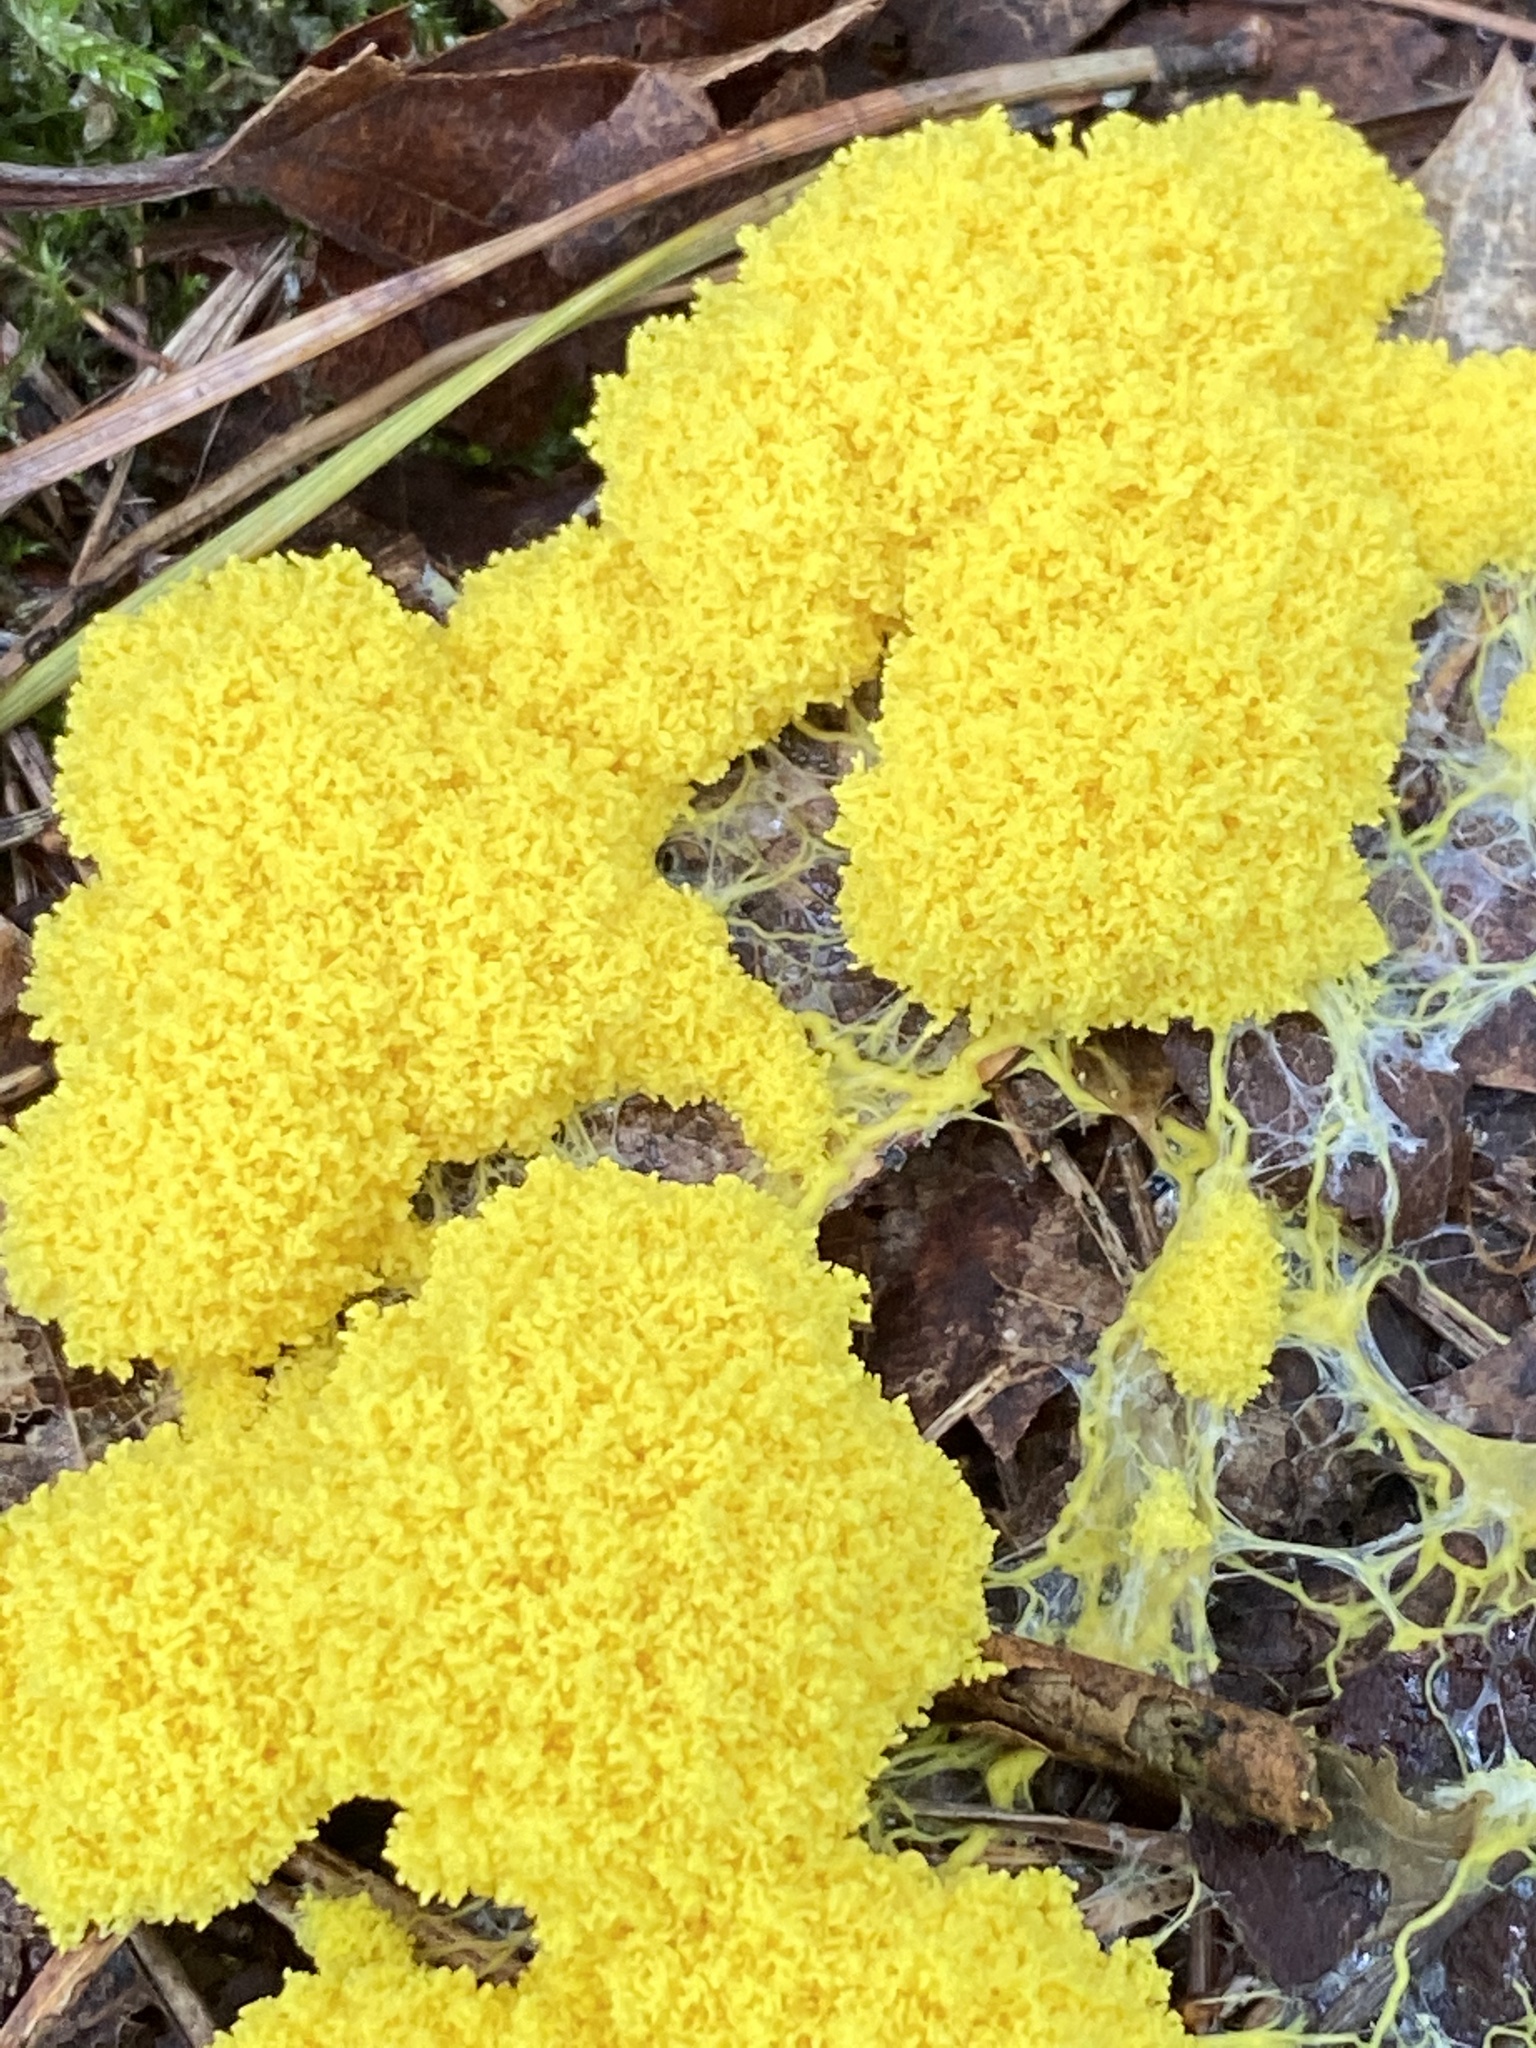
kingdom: Protozoa
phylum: Mycetozoa
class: Myxomycetes
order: Physarales
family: Physaraceae
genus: Fuligo
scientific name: Fuligo septica
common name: Dog vomit slime mold
